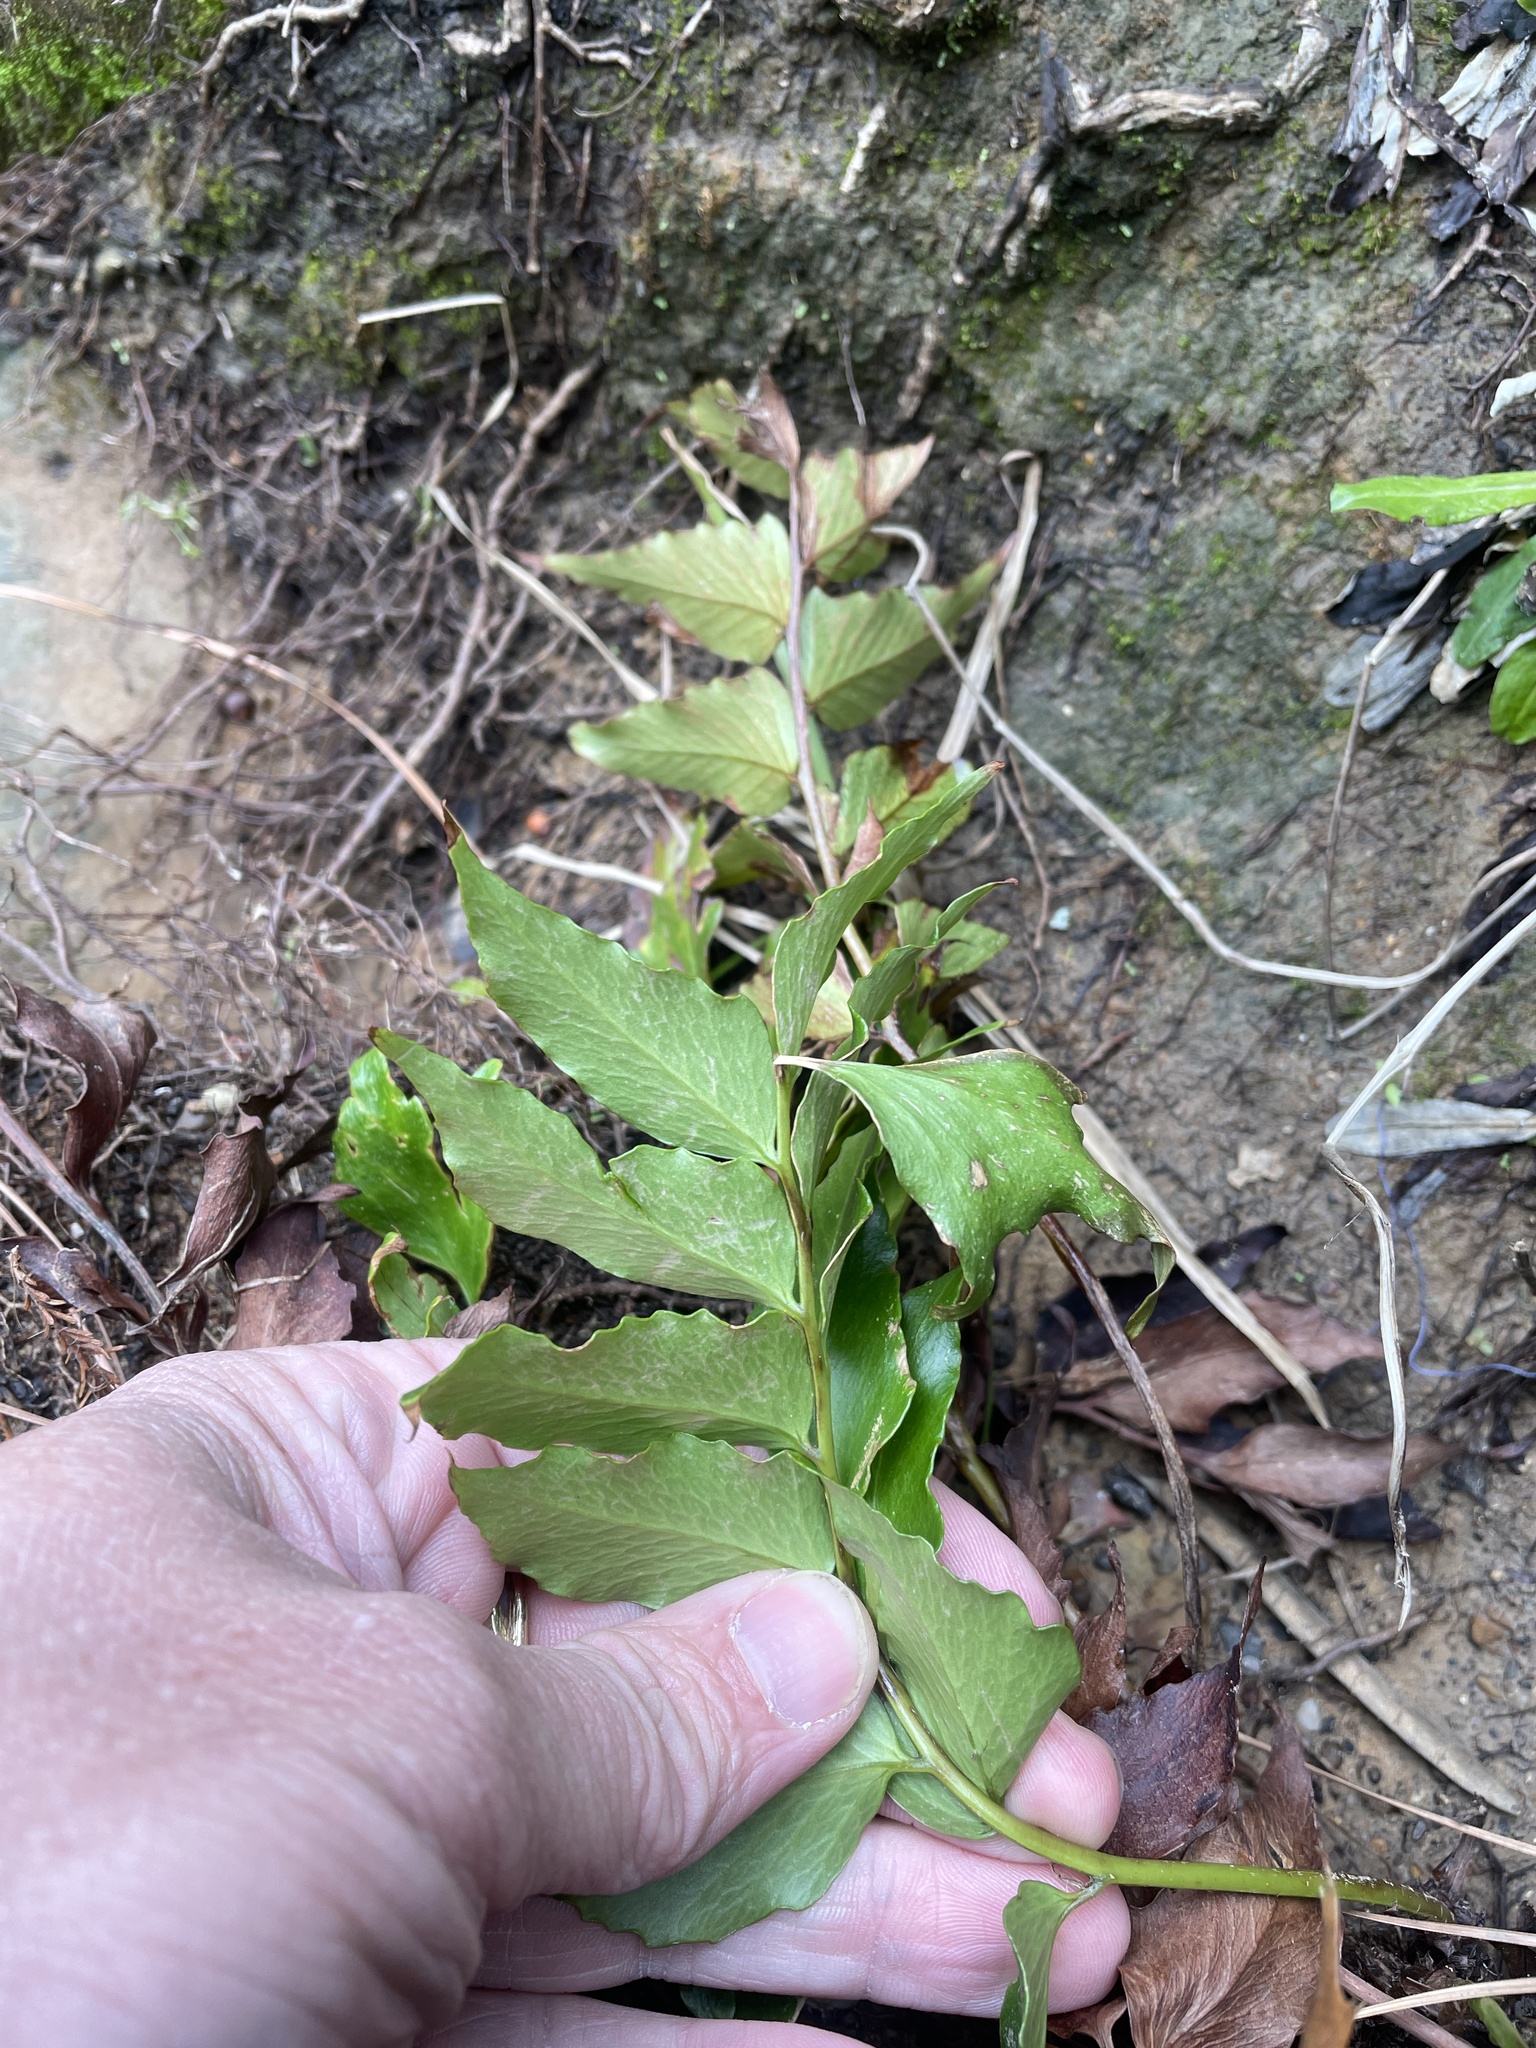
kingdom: Plantae
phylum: Tracheophyta
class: Polypodiopsida
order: Polypodiales
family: Dryopteridaceae
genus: Cyrtomium
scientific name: Cyrtomium falcatum
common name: House holly-fern
